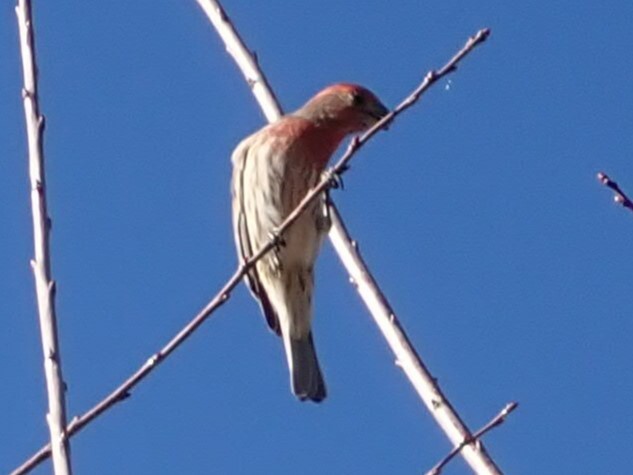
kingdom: Animalia
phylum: Chordata
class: Aves
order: Passeriformes
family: Fringillidae
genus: Haemorhous
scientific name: Haemorhous mexicanus
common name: House finch
